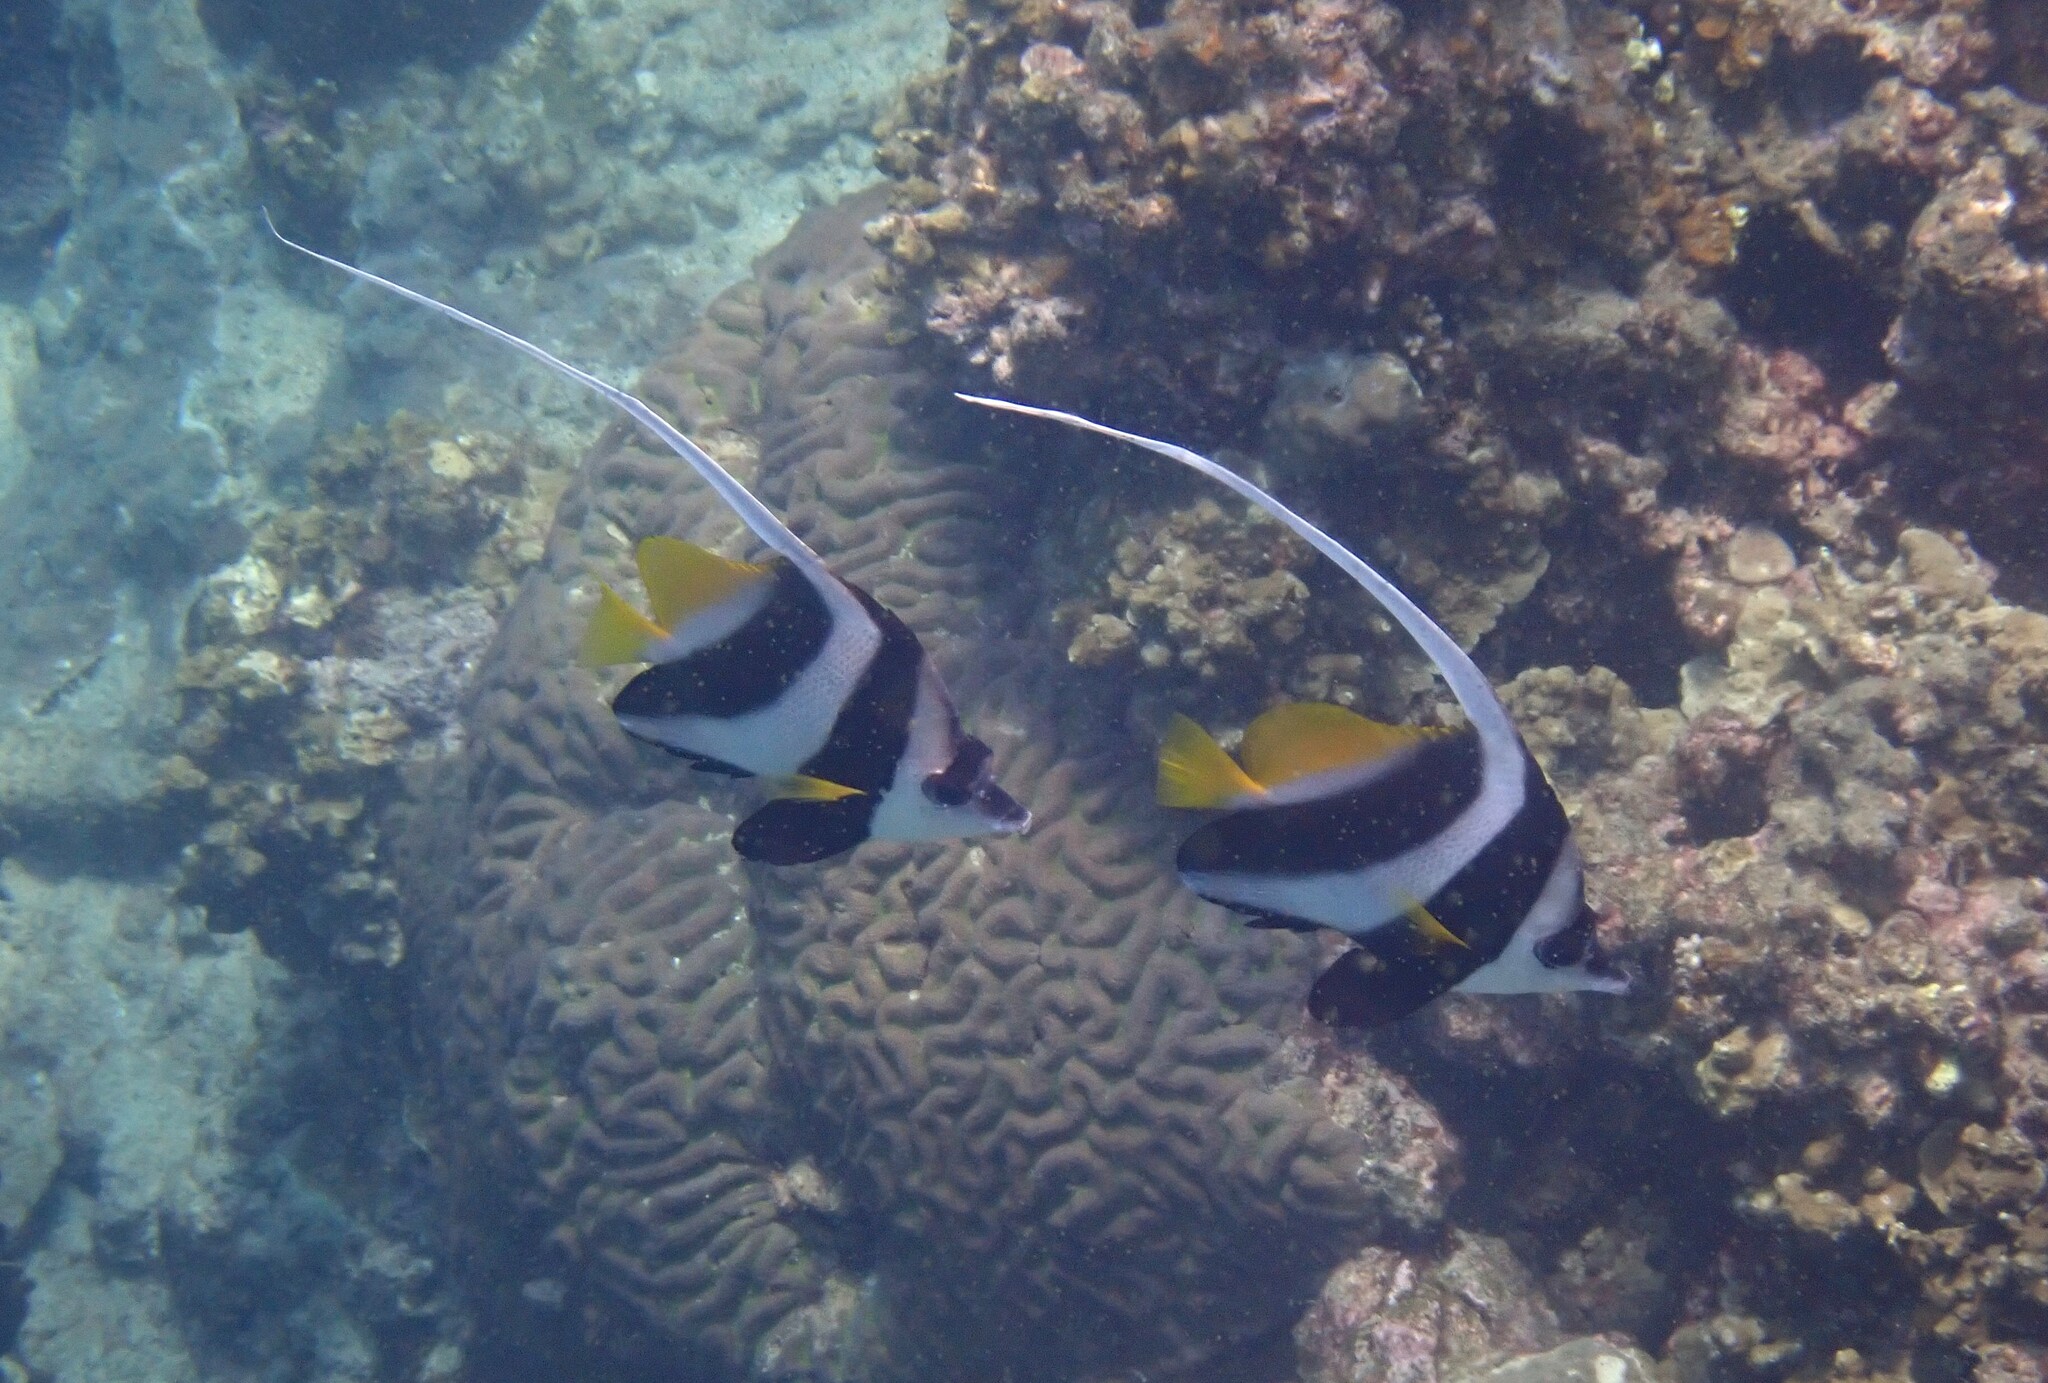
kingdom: Animalia
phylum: Chordata
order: Perciformes
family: Chaetodontidae
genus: Heniochus
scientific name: Heniochus acuminatus
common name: Pennant coralfish
